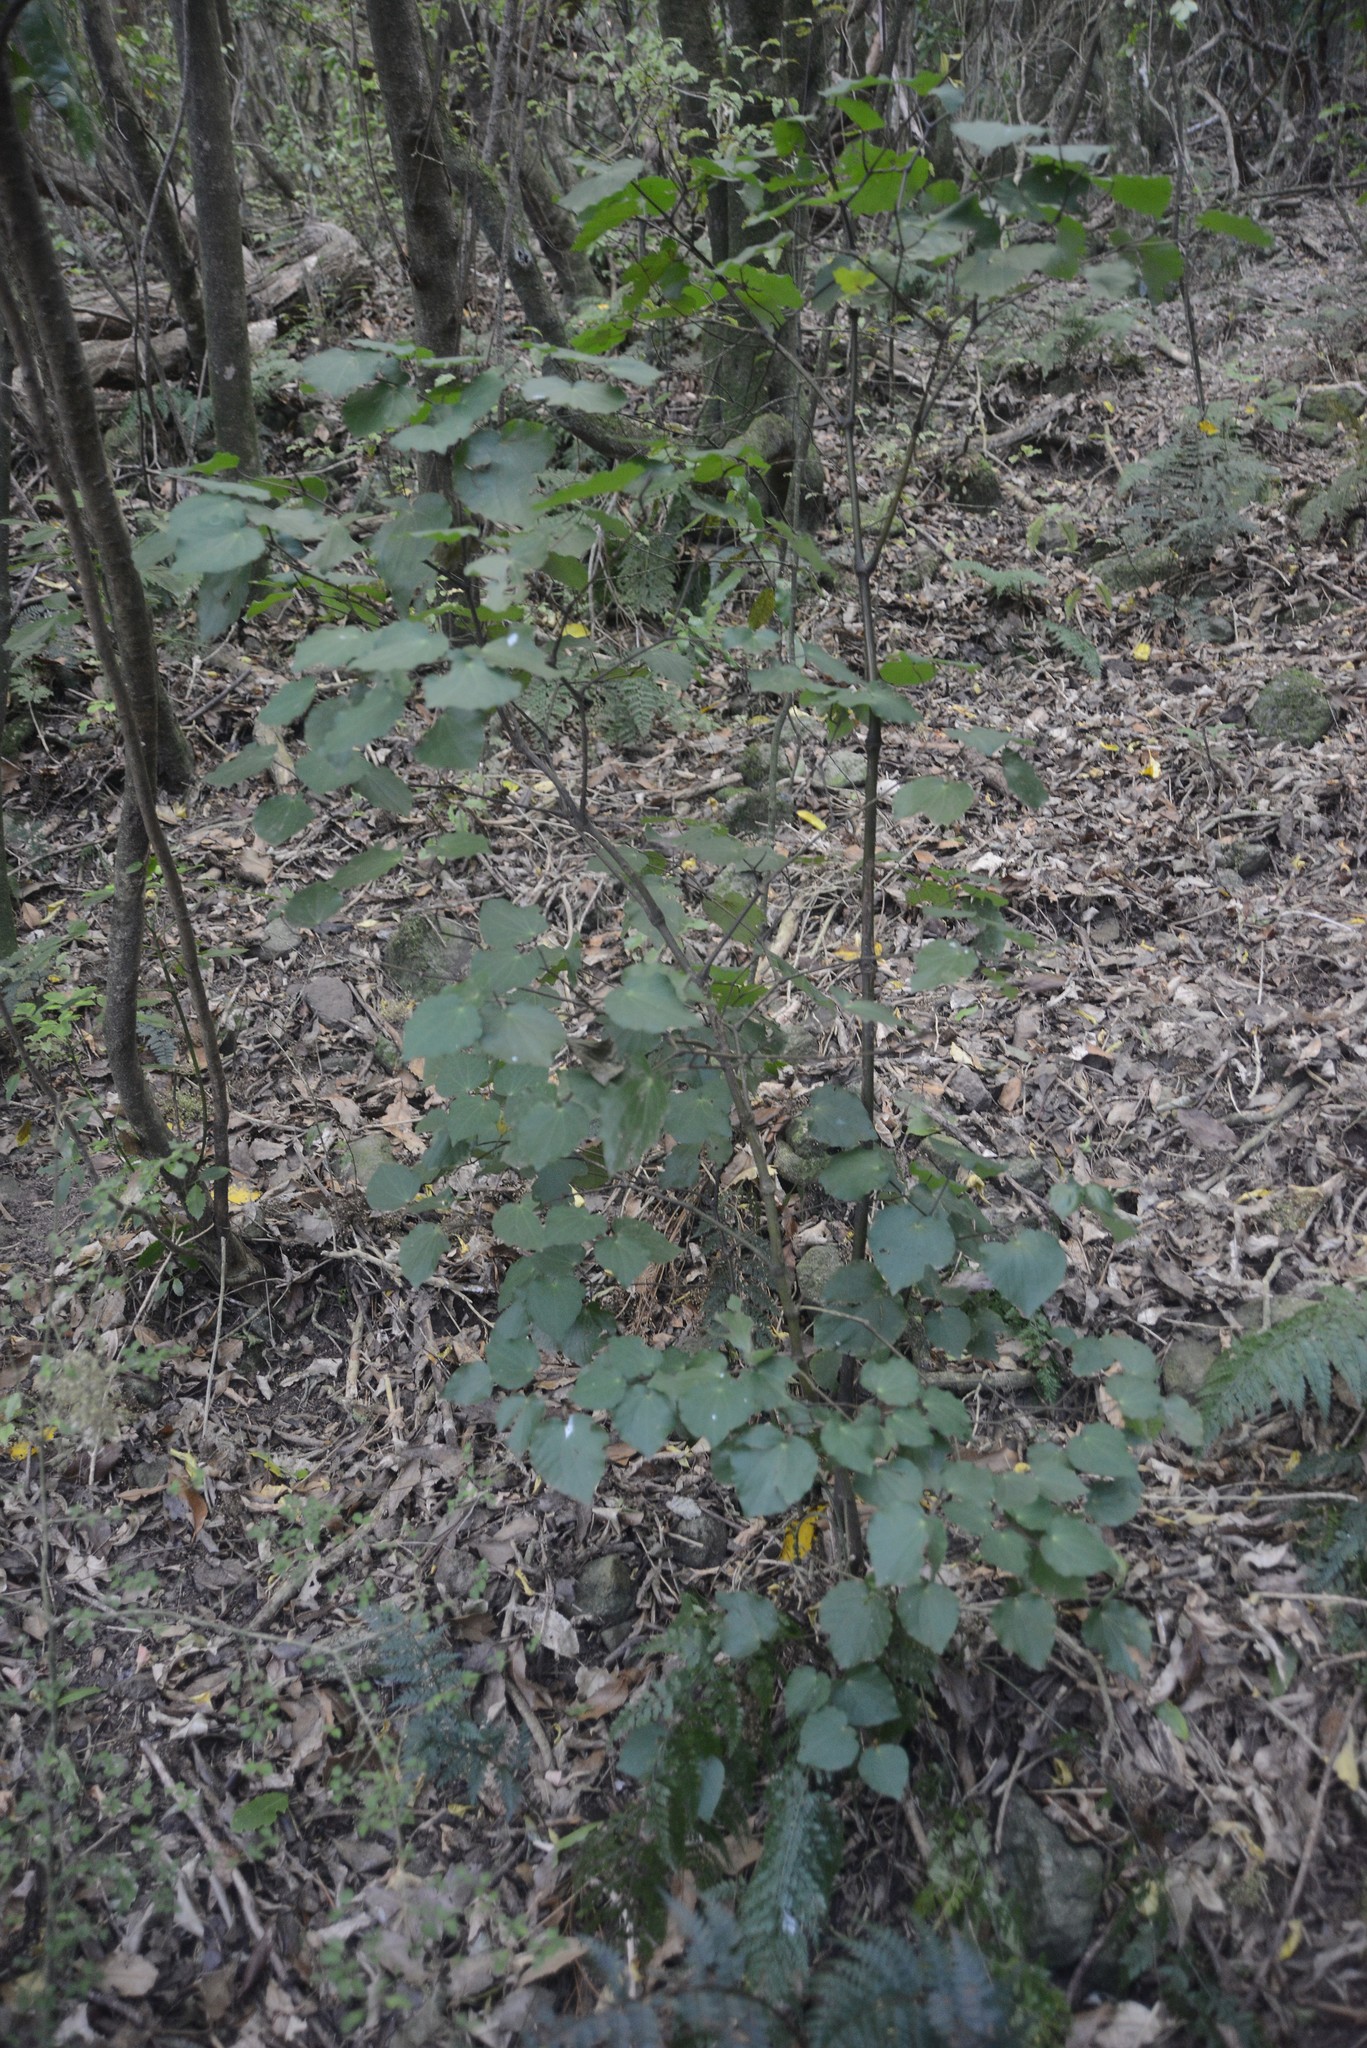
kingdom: Plantae
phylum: Tracheophyta
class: Magnoliopsida
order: Piperales
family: Piperaceae
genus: Macropiper
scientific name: Macropiper excelsum
